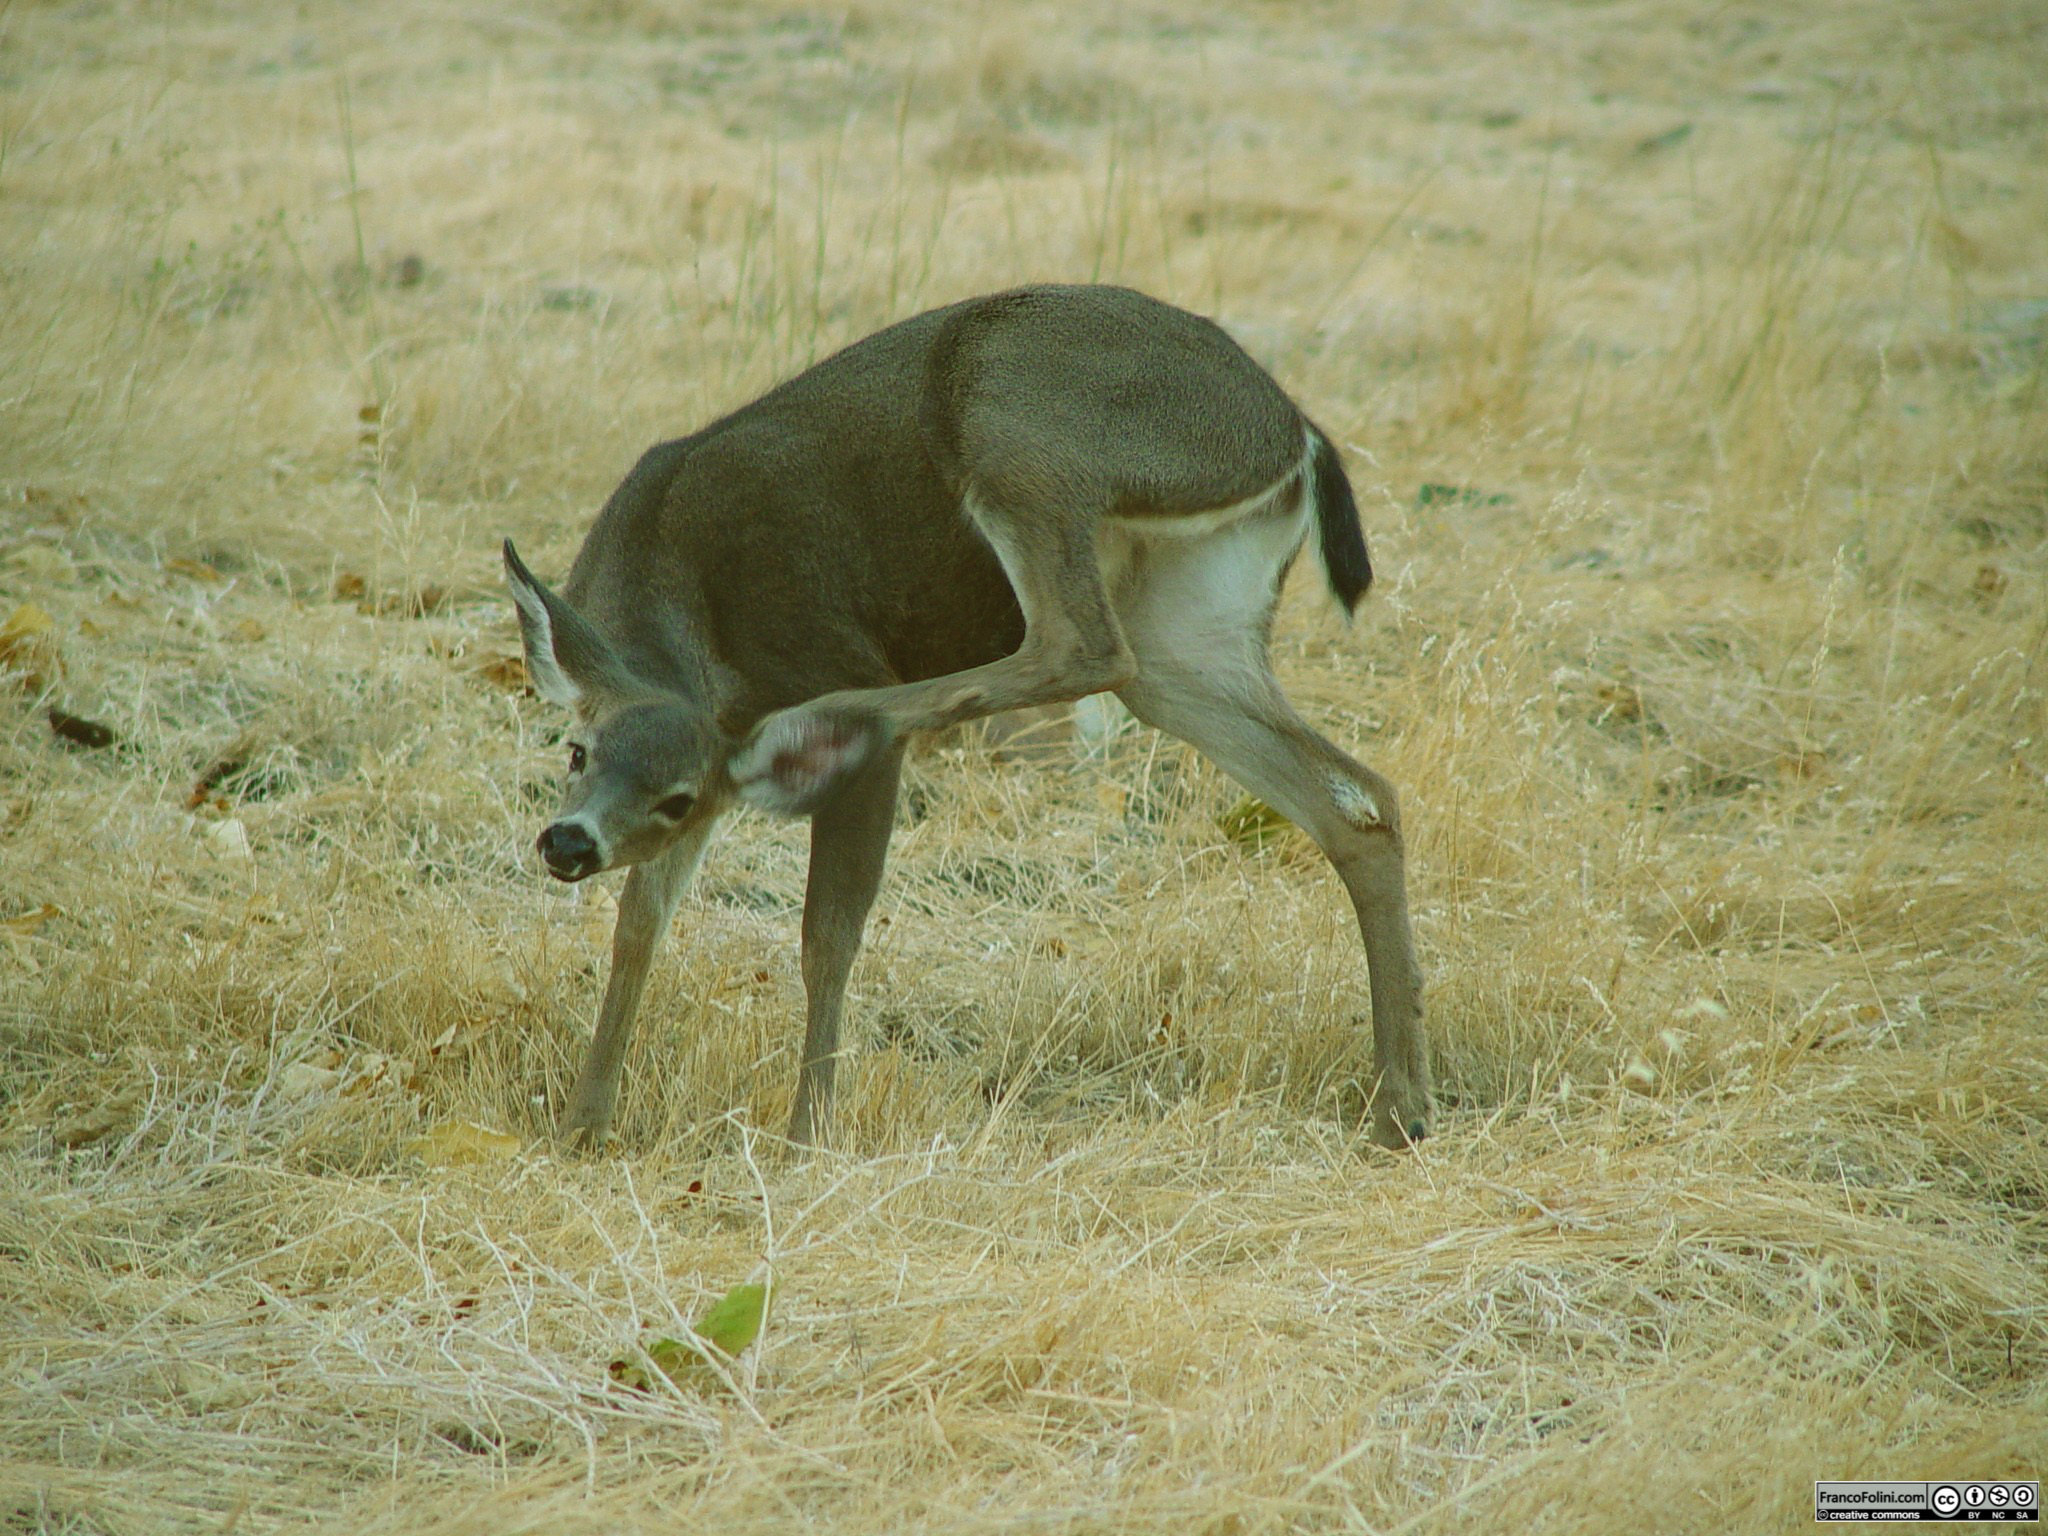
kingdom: Animalia
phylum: Chordata
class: Mammalia
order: Artiodactyla
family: Cervidae
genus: Odocoileus
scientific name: Odocoileus hemionus
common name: Mule deer
